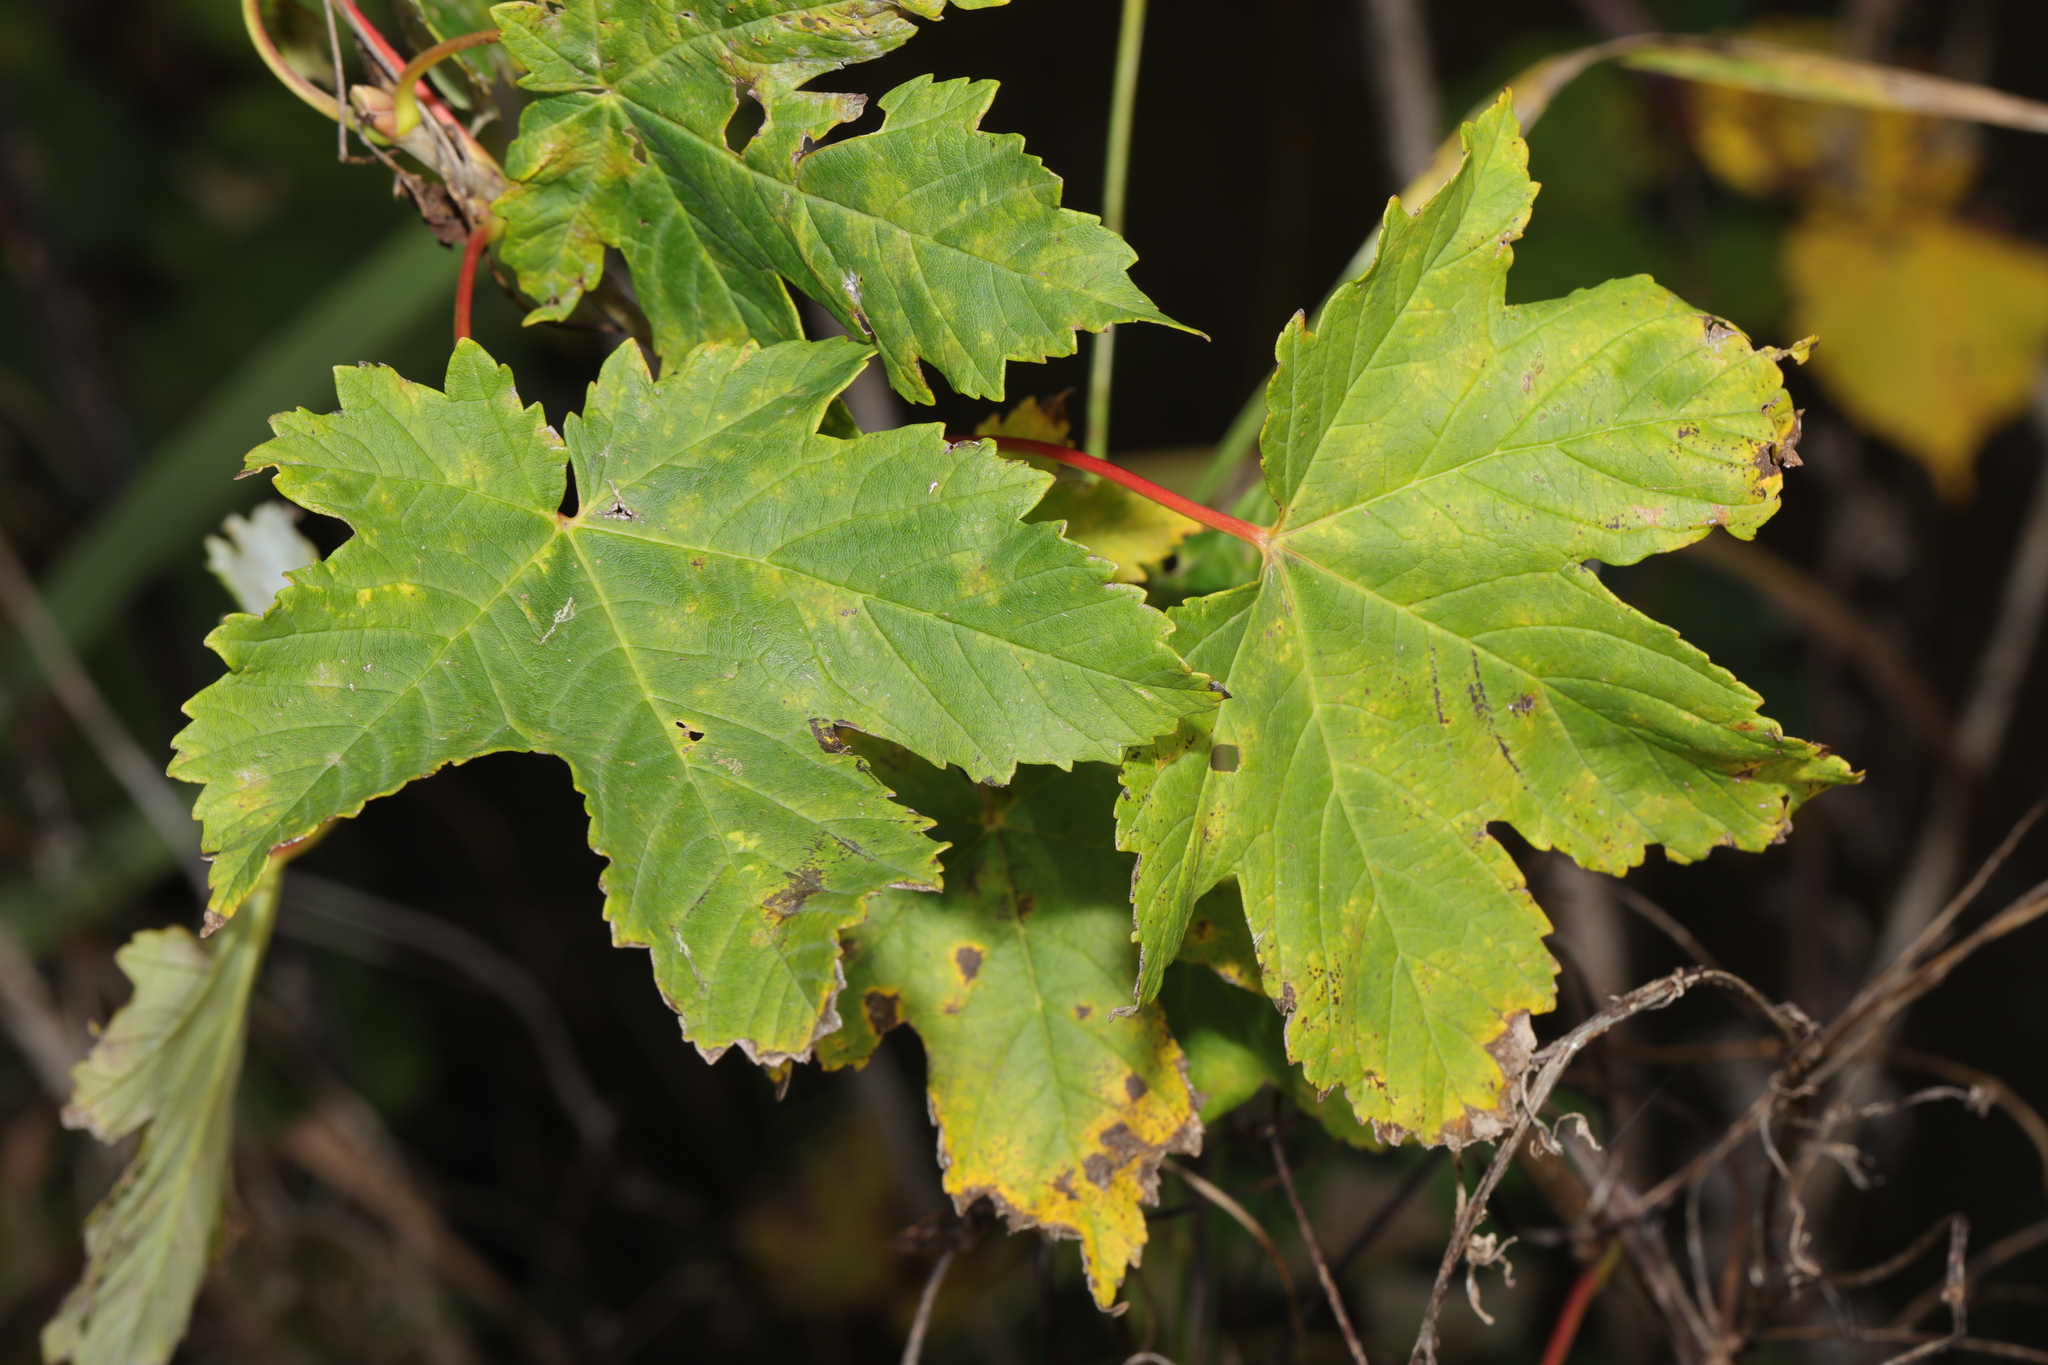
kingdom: Plantae
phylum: Tracheophyta
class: Magnoliopsida
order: Sapindales
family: Sapindaceae
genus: Acer
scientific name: Acer pseudoplatanus
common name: Sycamore
